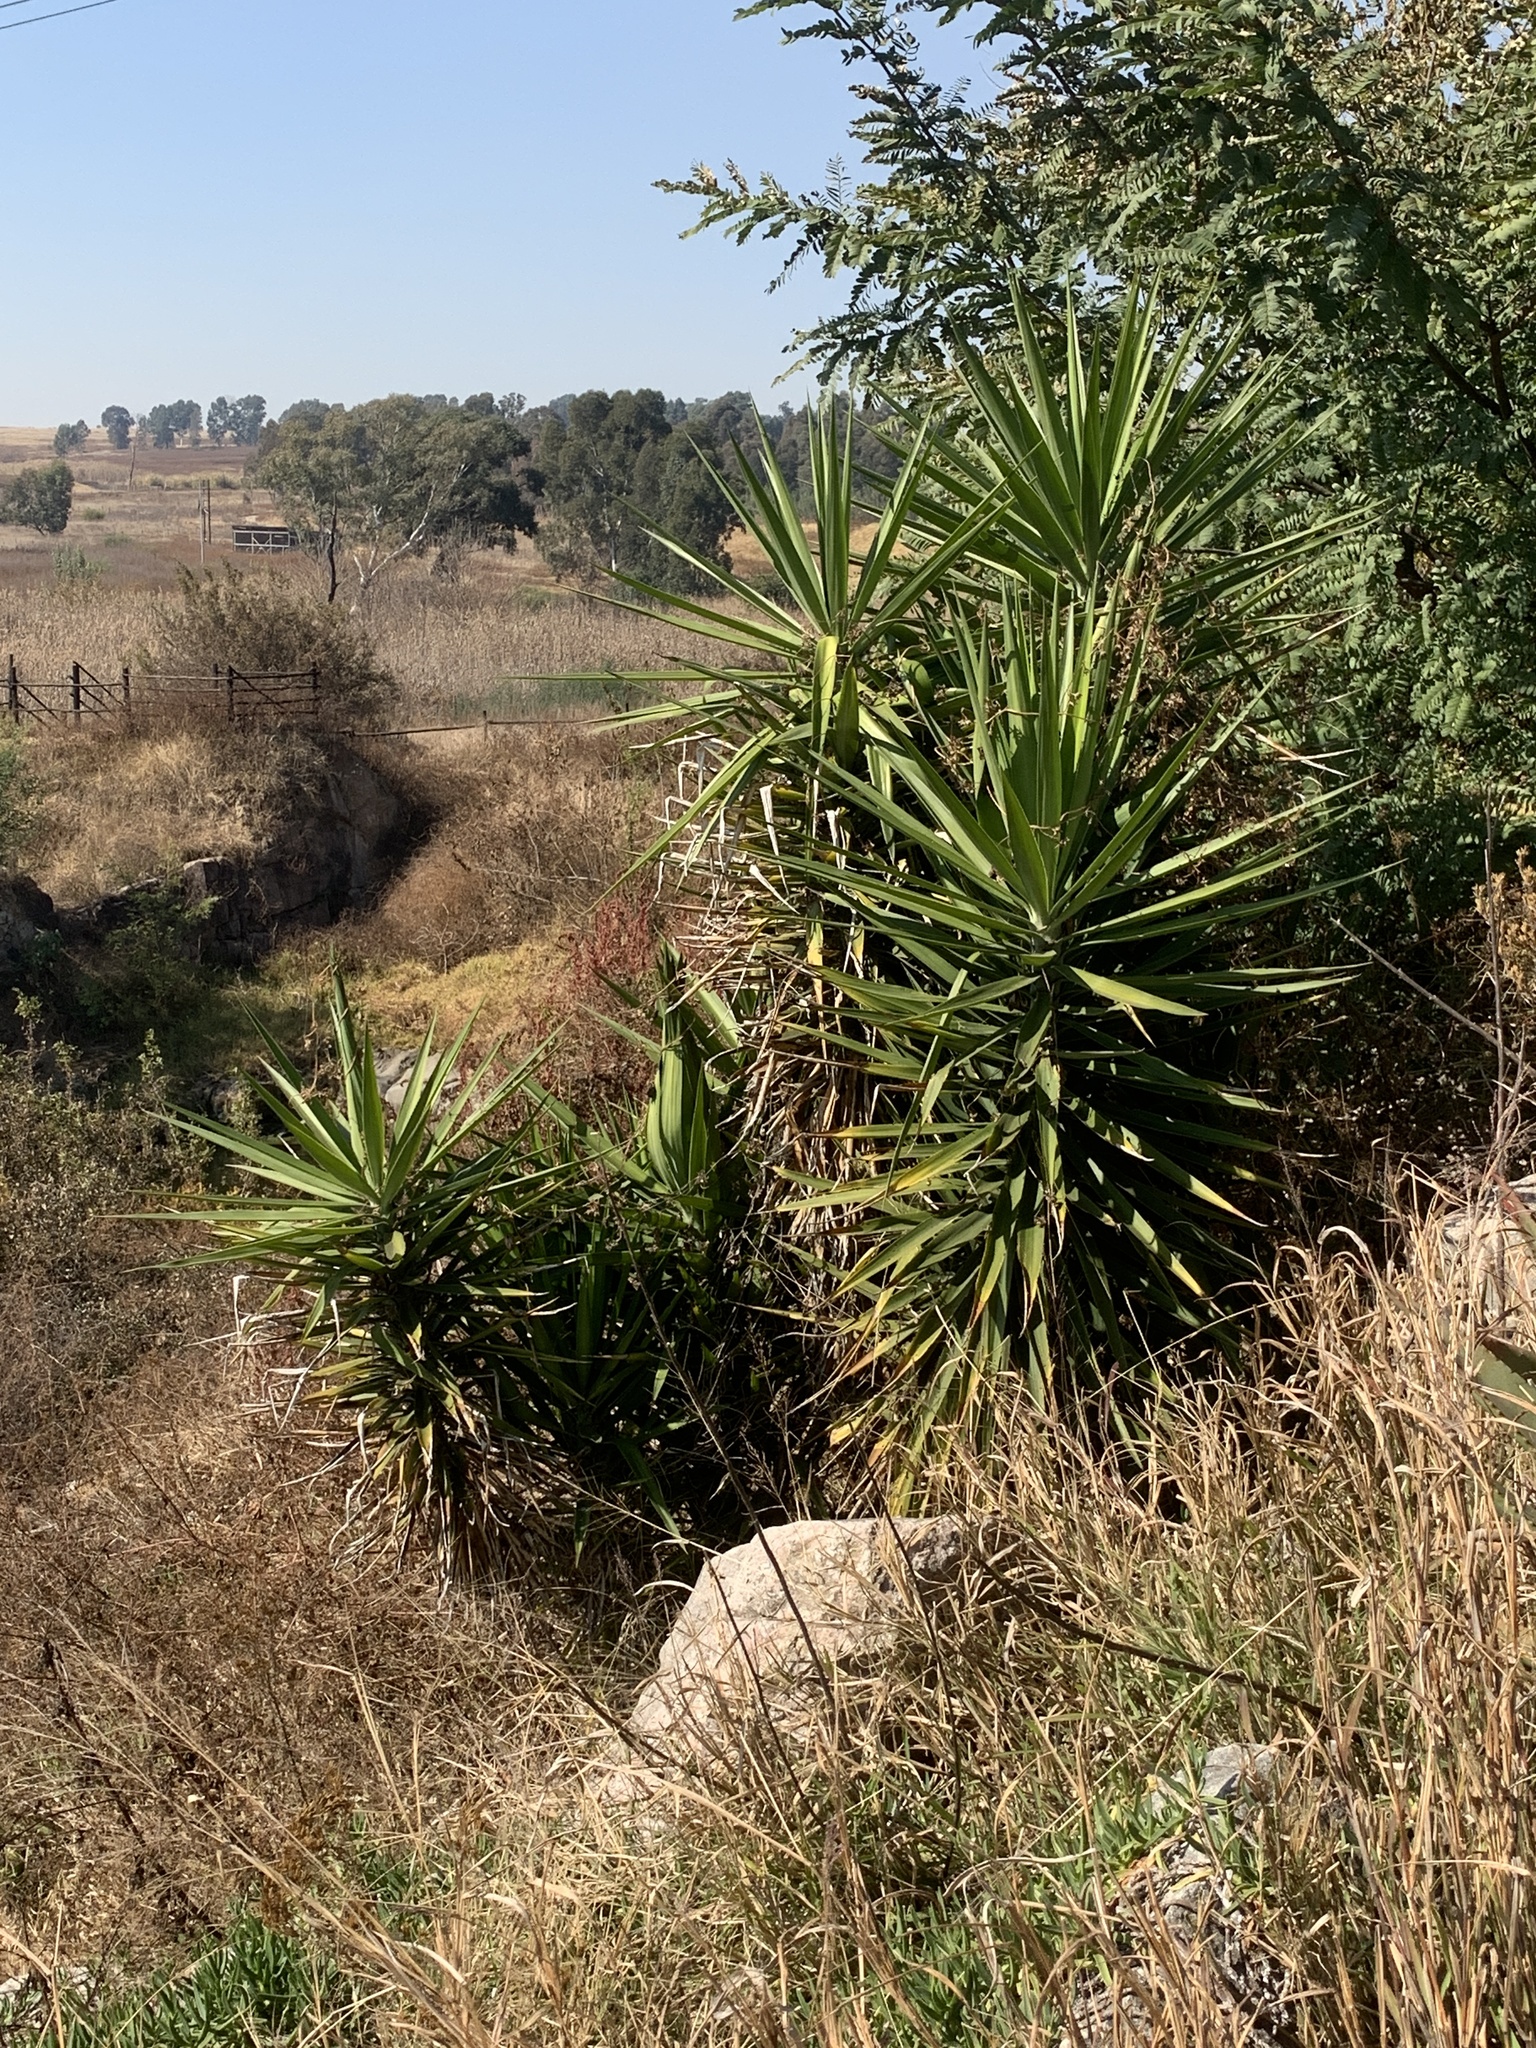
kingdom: Plantae
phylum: Tracheophyta
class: Liliopsida
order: Asparagales
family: Asparagaceae
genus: Yucca
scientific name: Yucca aloifolia
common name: Aloe yucca
